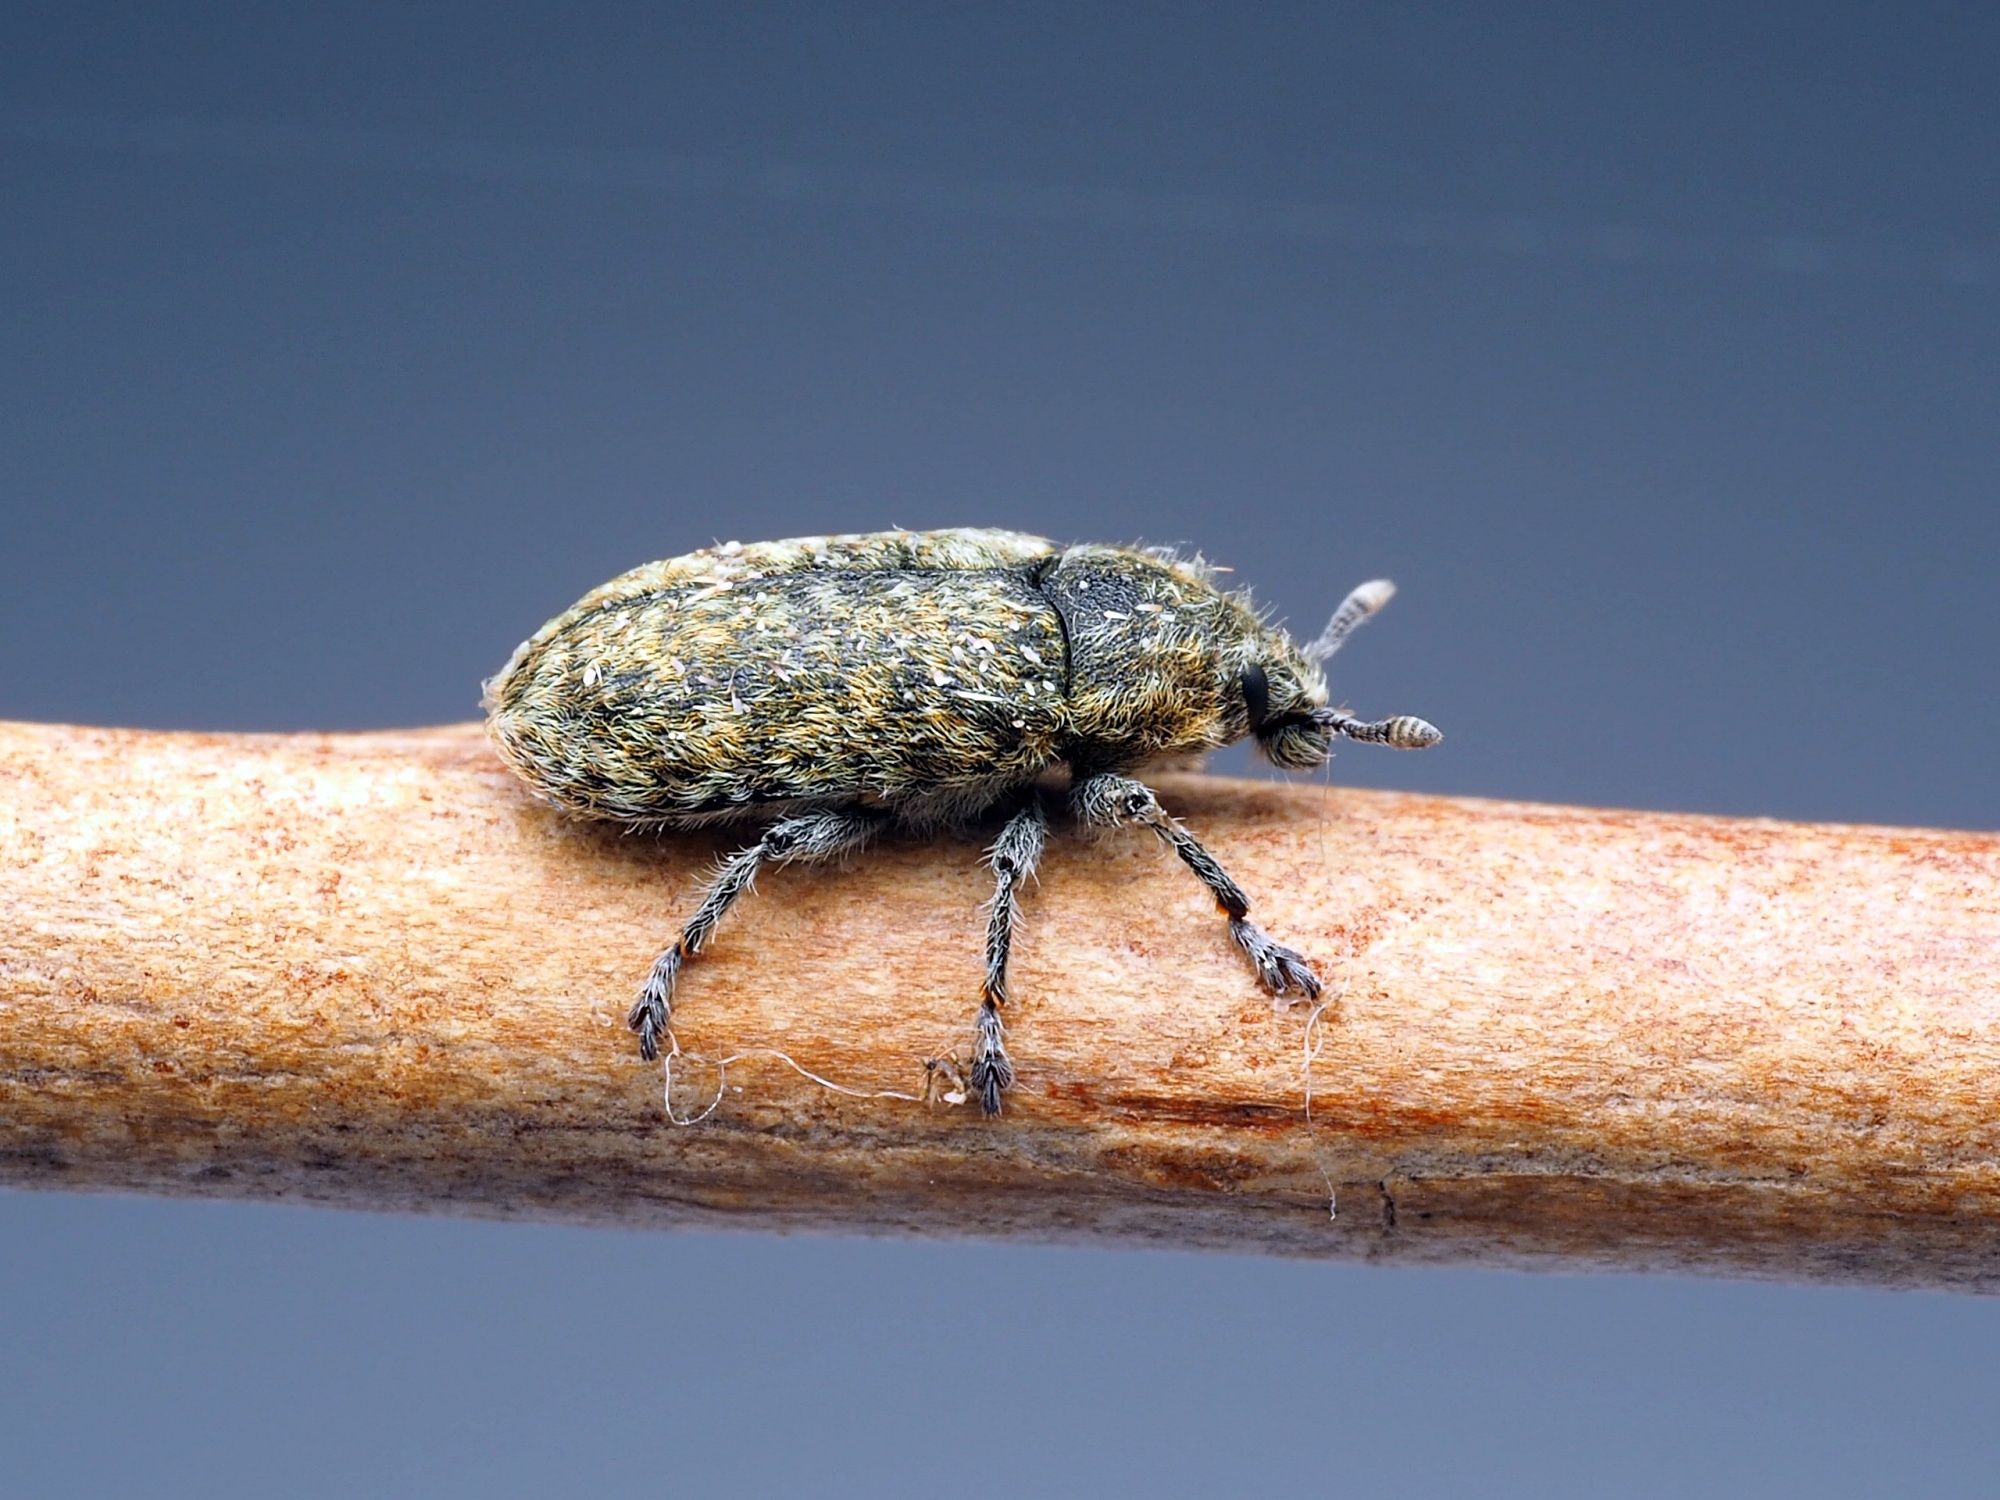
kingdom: Animalia
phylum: Arthropoda
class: Insecta
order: Coleoptera
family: Curculionidae
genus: Rhinocyllus
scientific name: Rhinocyllus conicus
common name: Weevil
